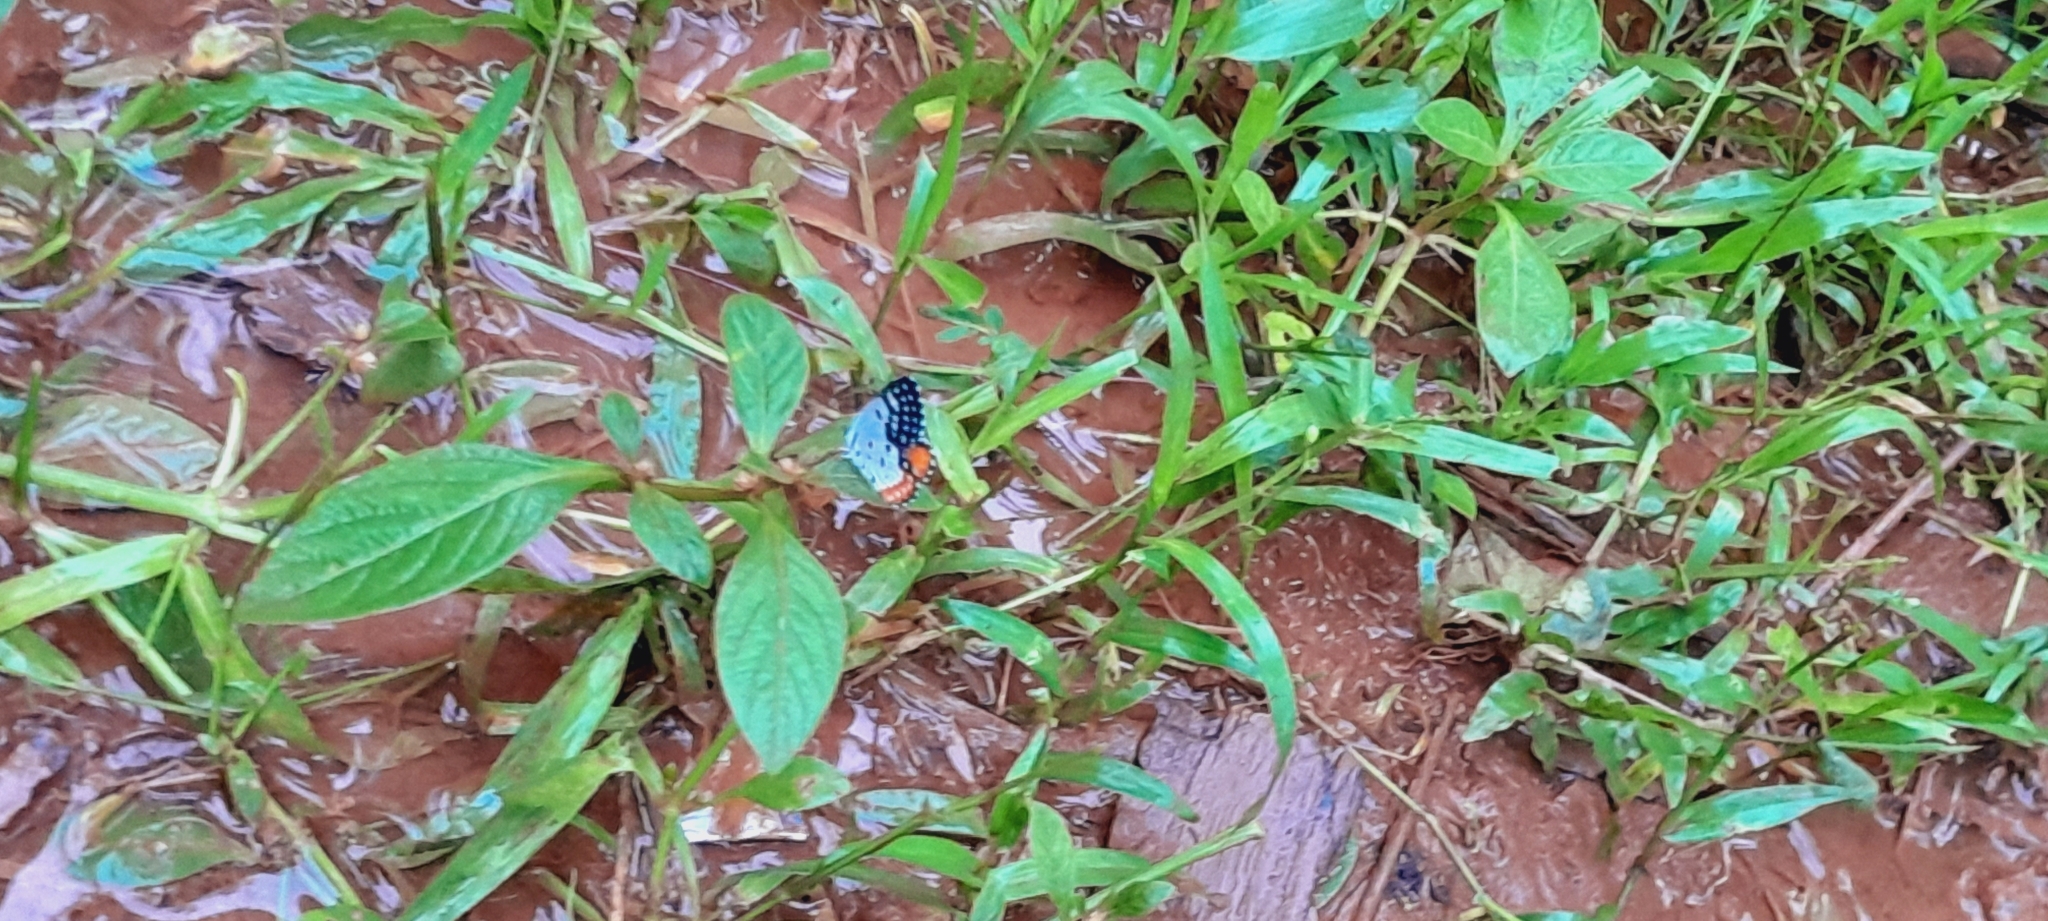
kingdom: Animalia
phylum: Arthropoda
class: Insecta
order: Lepidoptera
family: Lycaenidae
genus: Talicada
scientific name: Talicada nyseus
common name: Red pierrot
